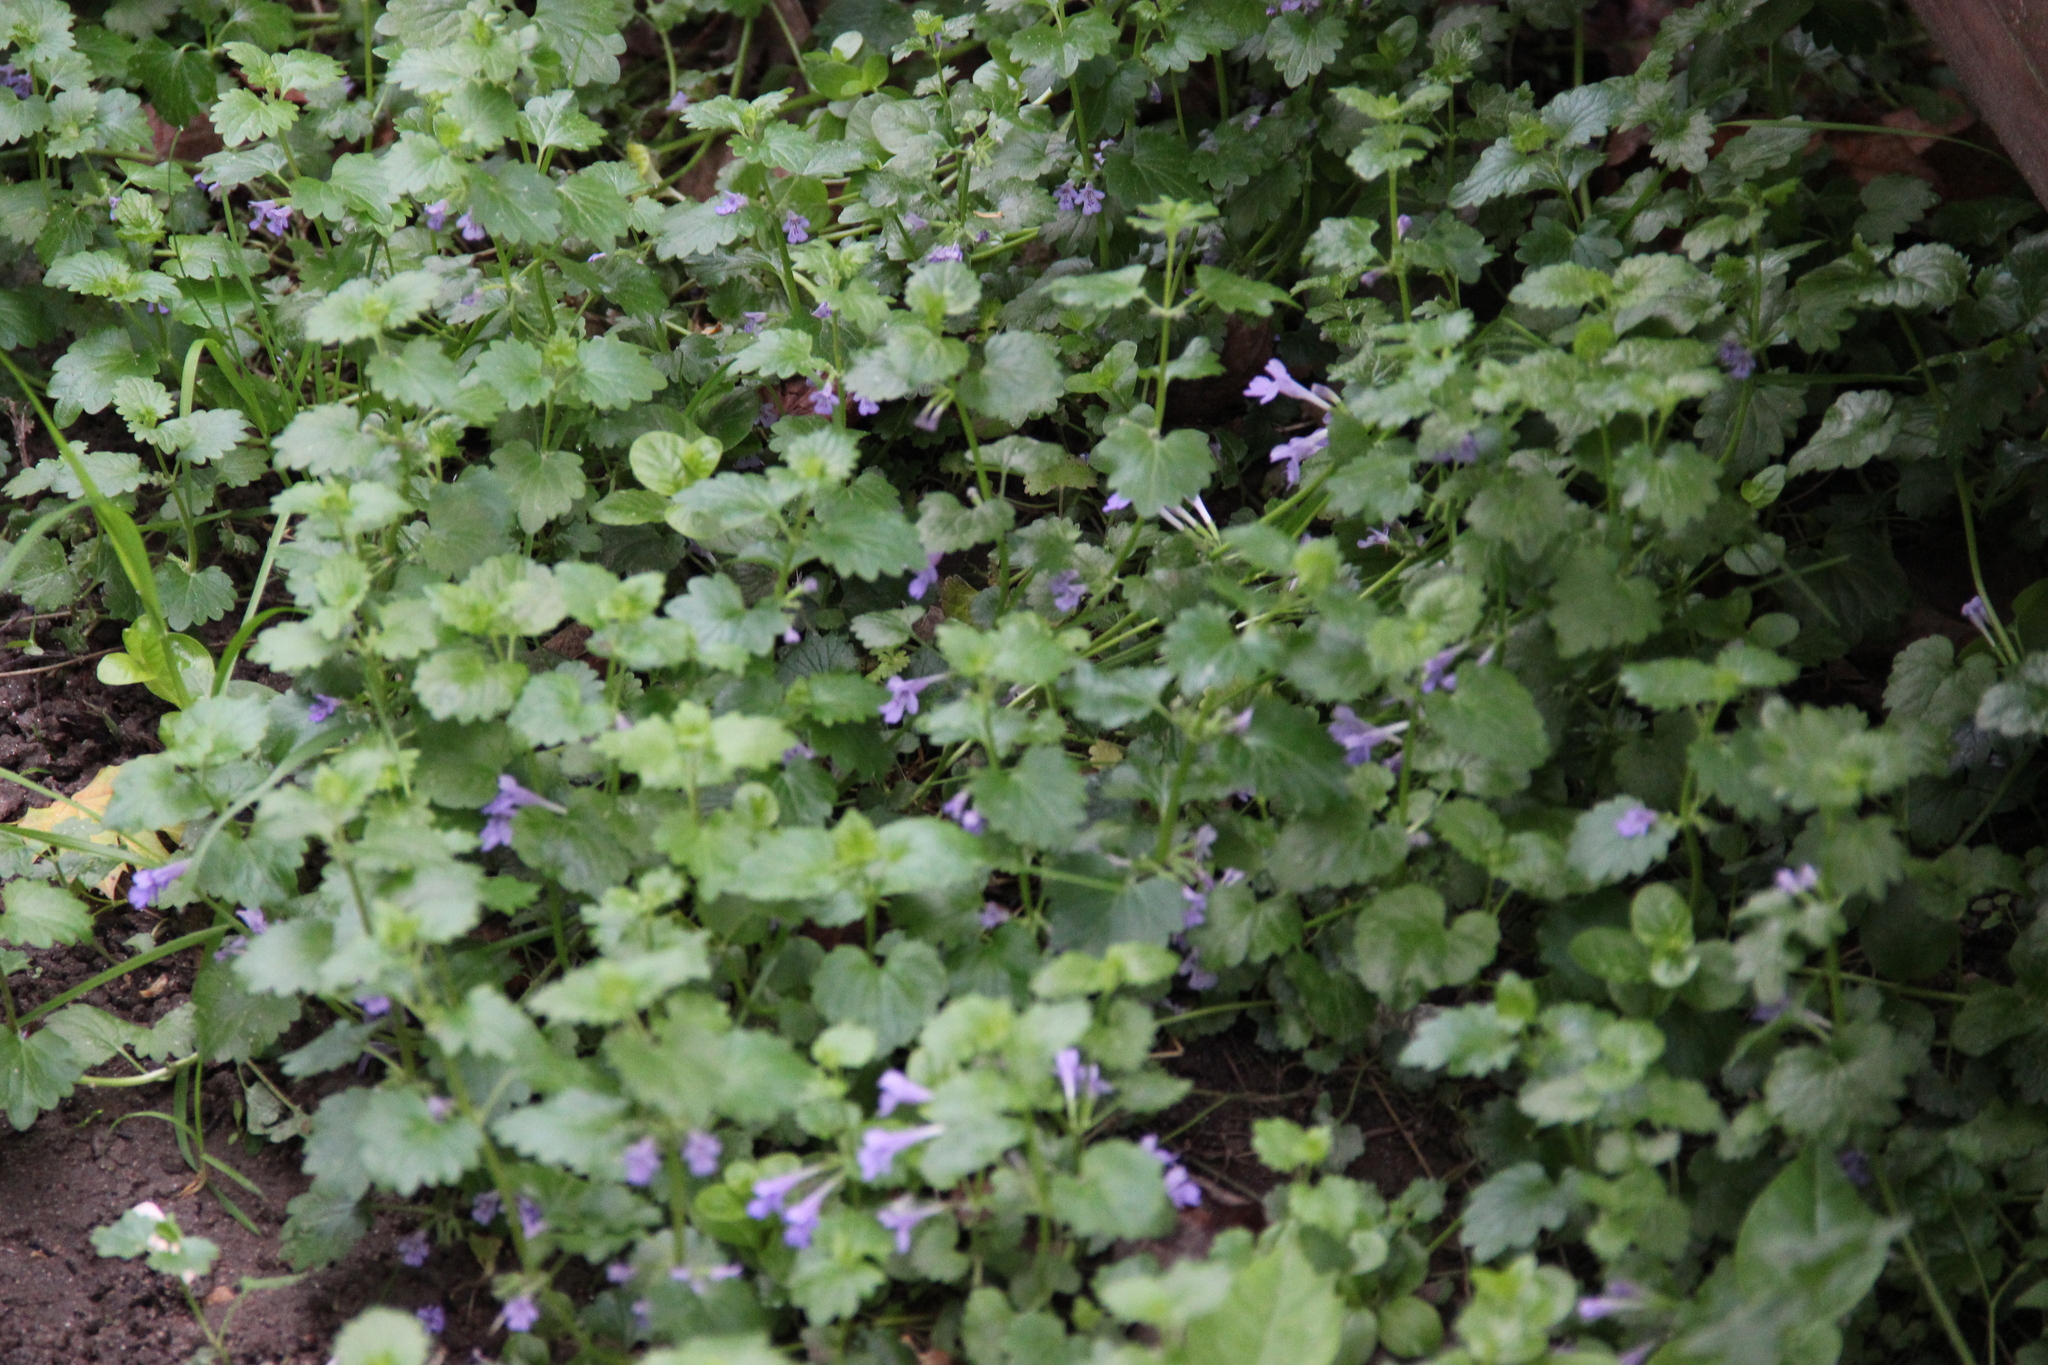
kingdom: Plantae
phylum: Tracheophyta
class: Magnoliopsida
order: Lamiales
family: Lamiaceae
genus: Glechoma
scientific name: Glechoma hederacea
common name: Ground ivy
